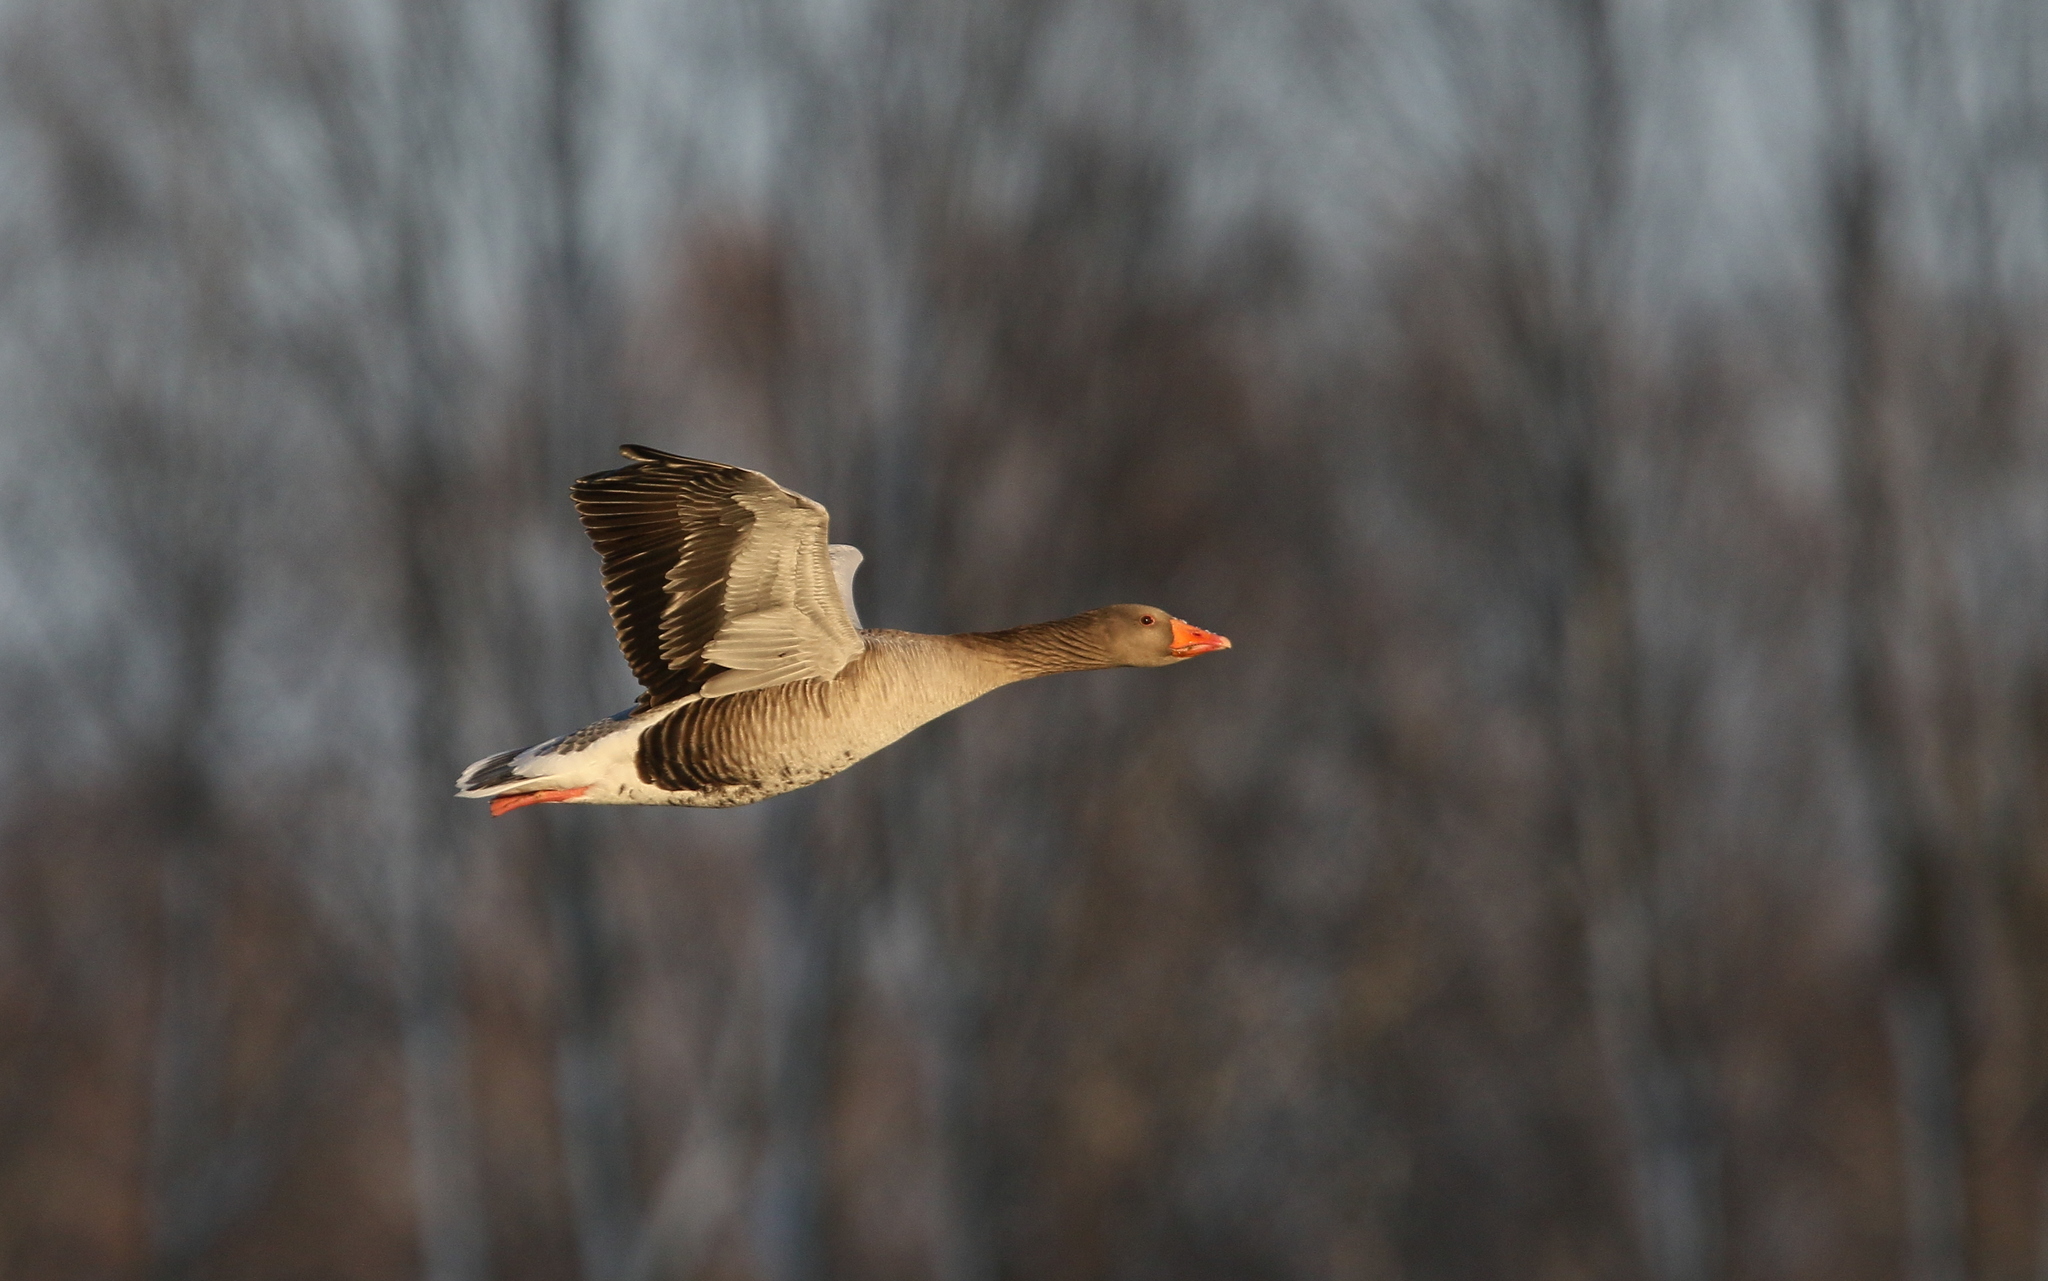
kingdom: Animalia
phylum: Chordata
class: Aves
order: Anseriformes
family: Anatidae
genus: Anser
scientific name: Anser anser
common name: Greylag goose
